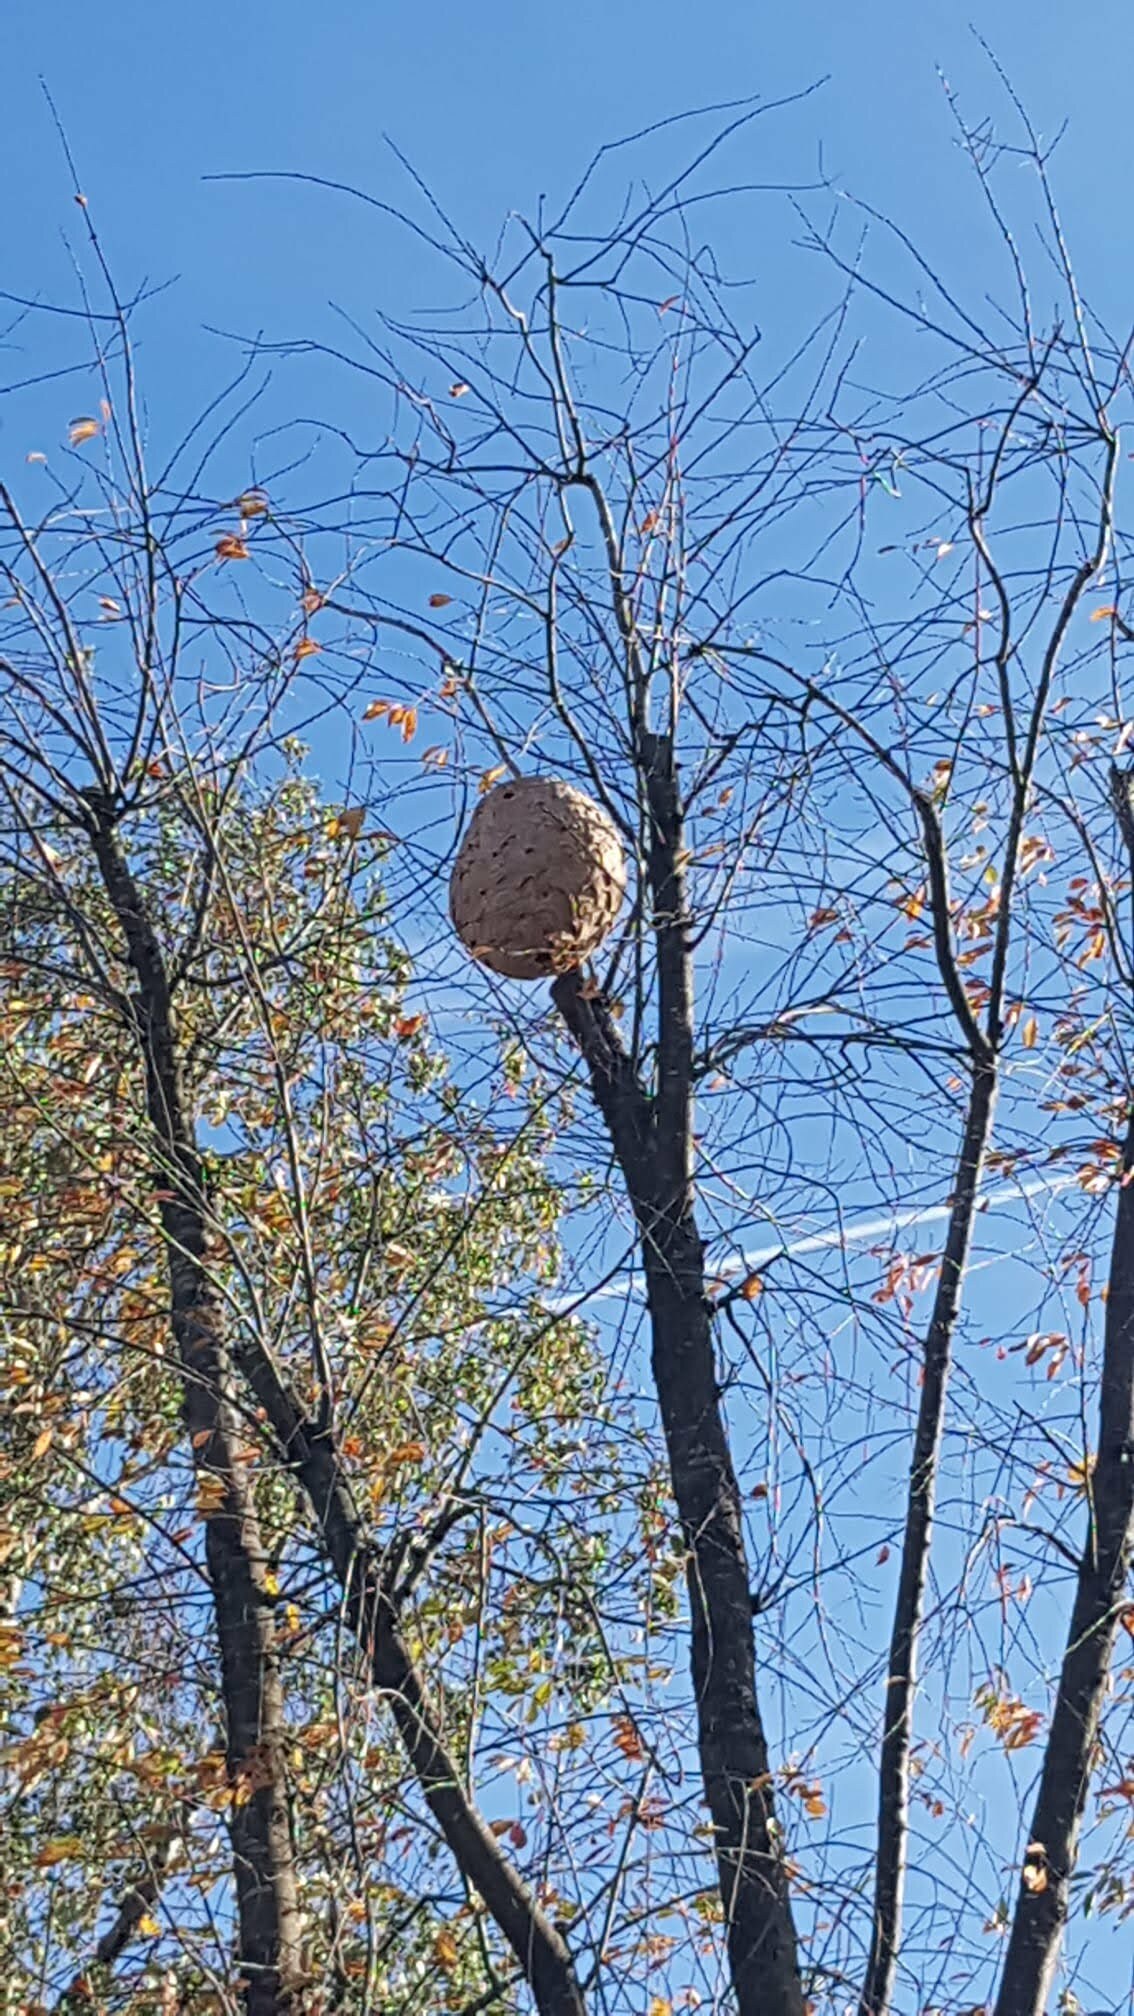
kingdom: Animalia
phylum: Arthropoda
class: Insecta
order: Hymenoptera
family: Vespidae
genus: Vespa
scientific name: Vespa velutina
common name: Asian hornet
